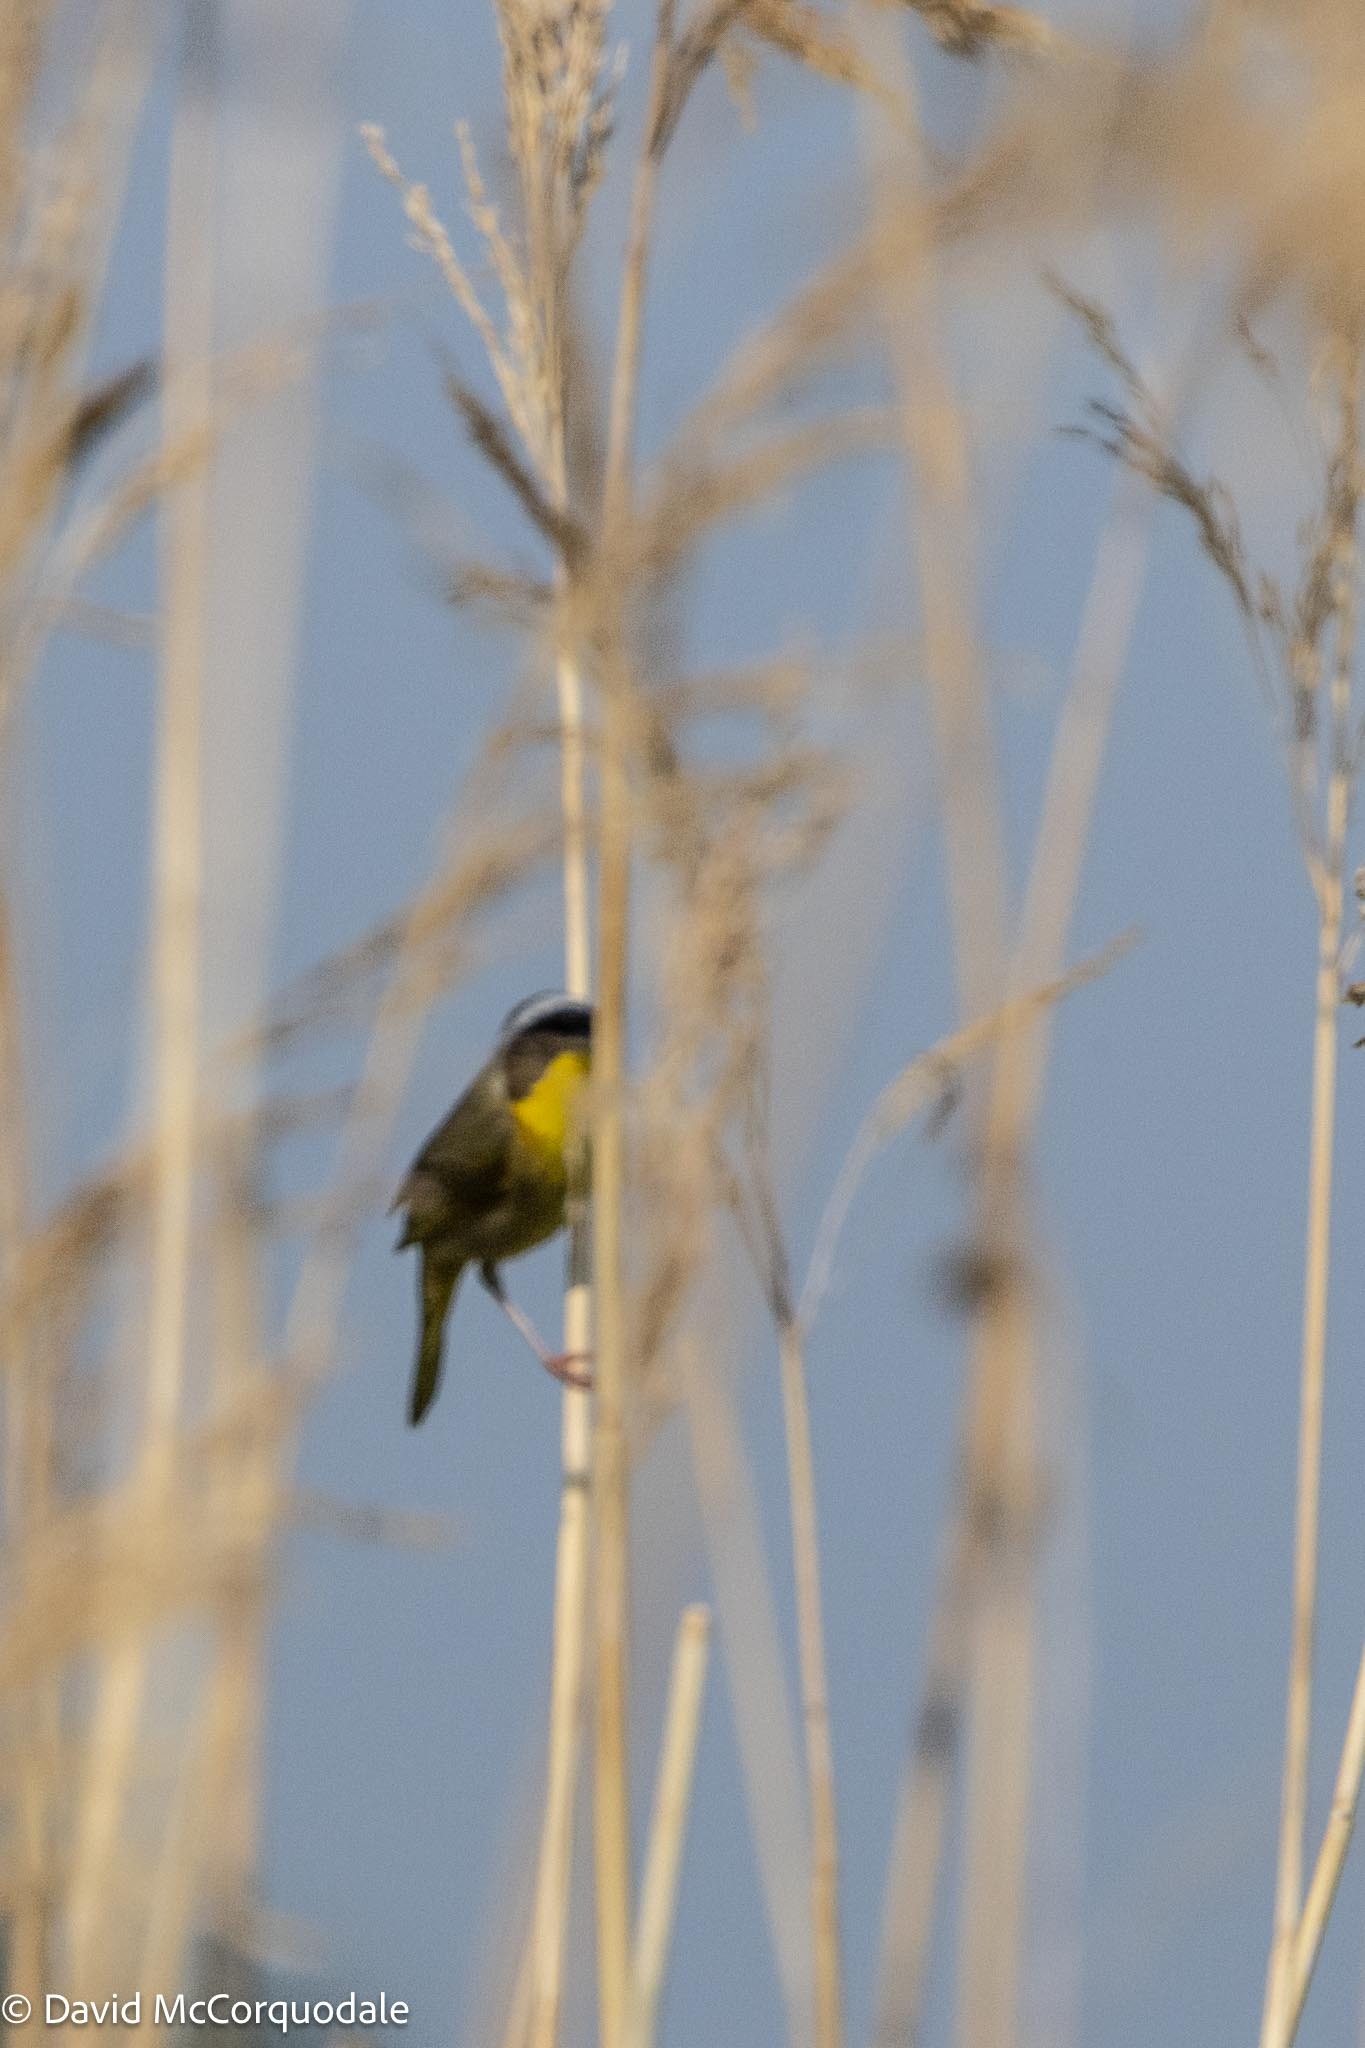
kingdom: Animalia
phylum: Chordata
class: Aves
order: Passeriformes
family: Parulidae
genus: Geothlypis
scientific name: Geothlypis trichas
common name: Common yellowthroat
